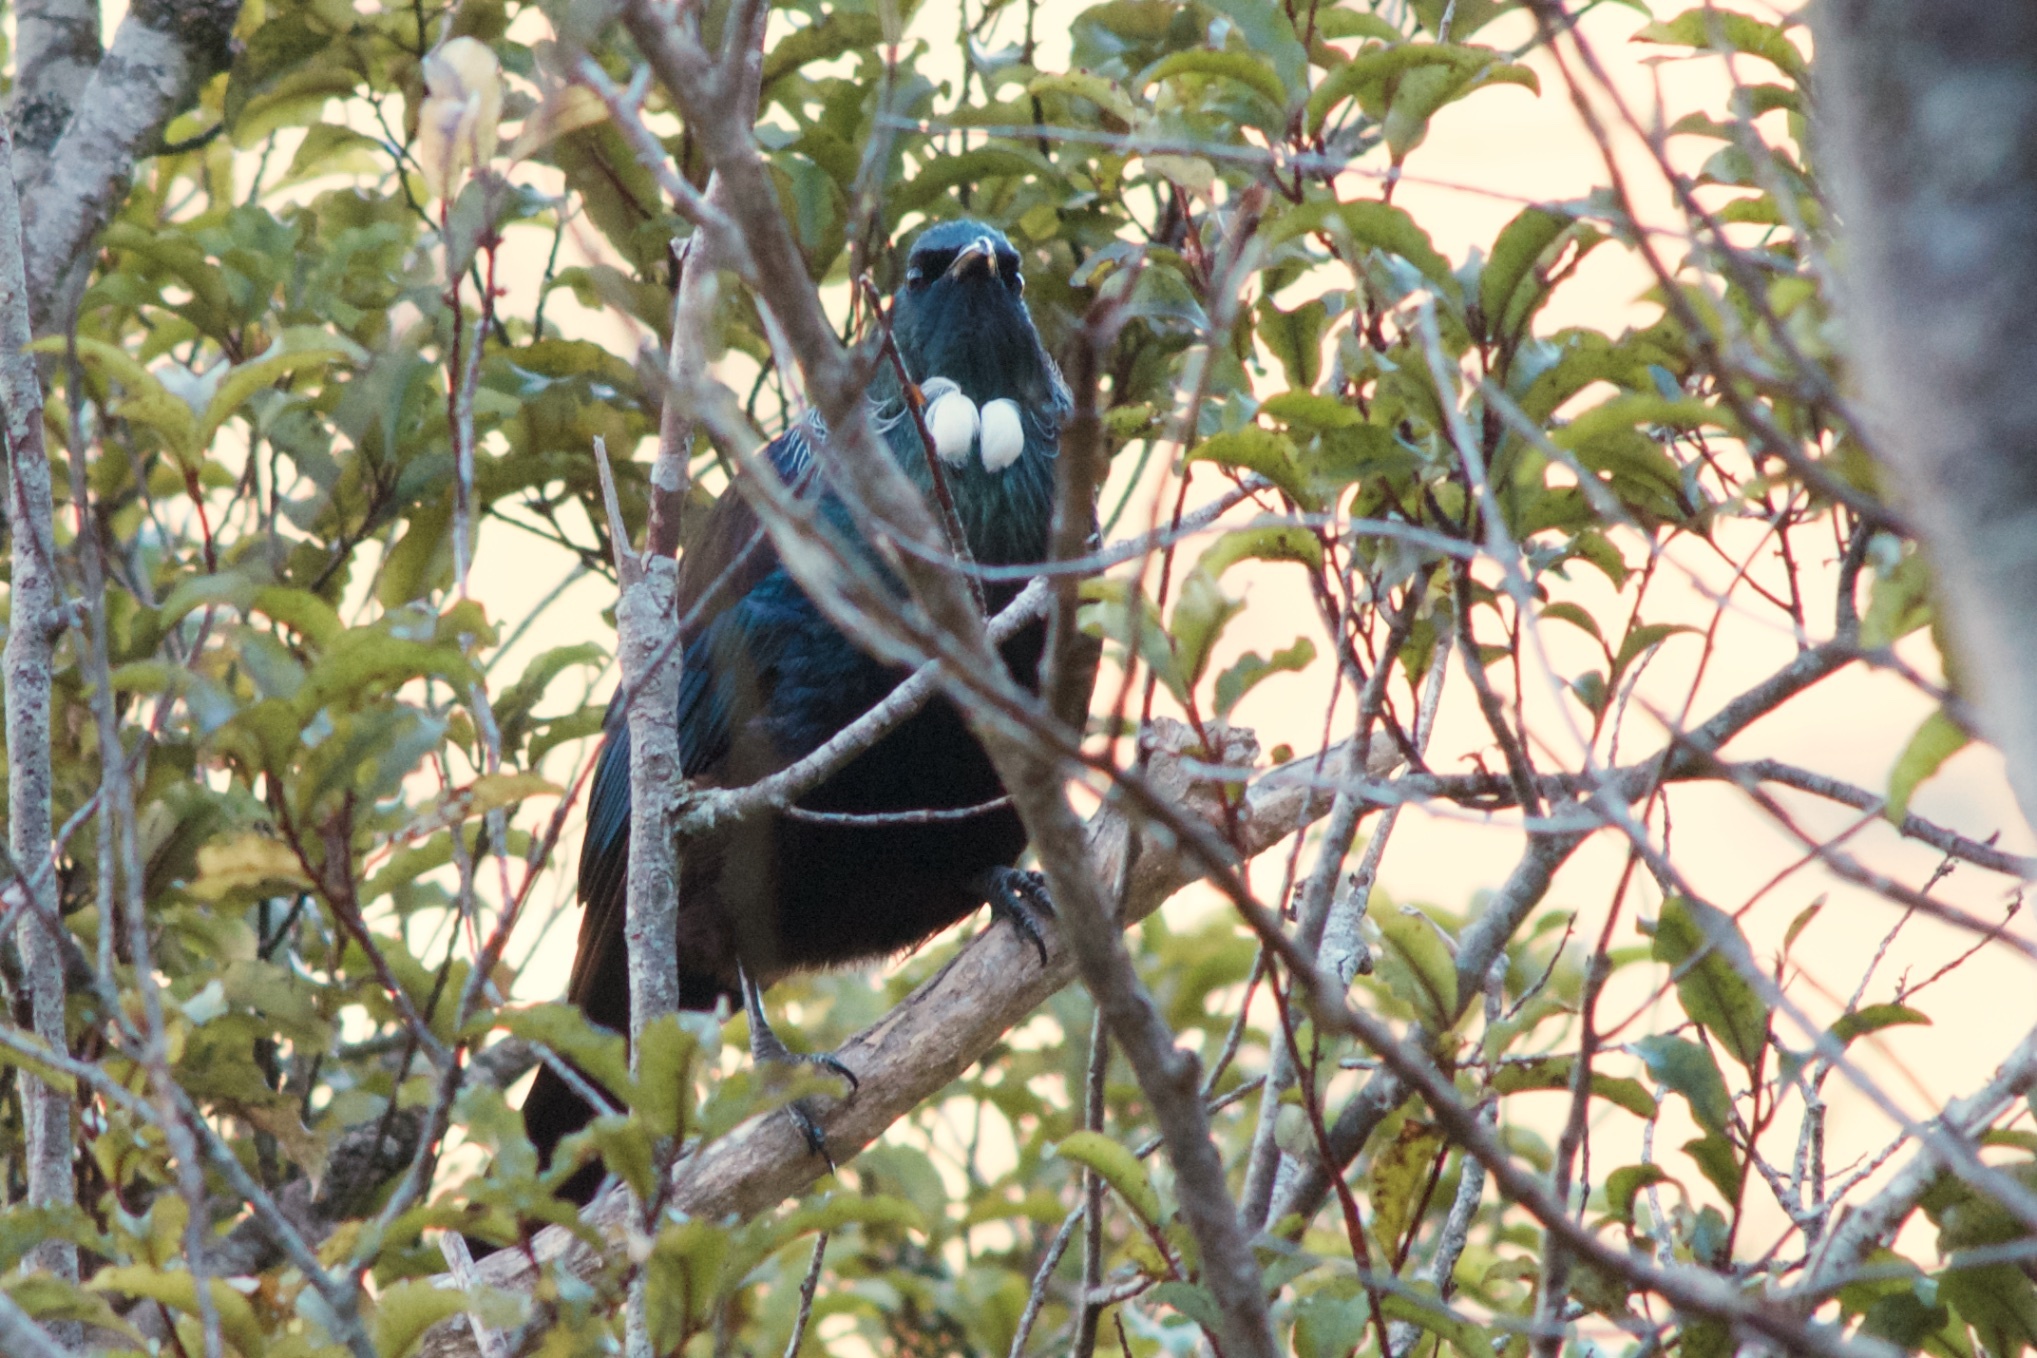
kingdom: Animalia
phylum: Chordata
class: Aves
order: Passeriformes
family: Meliphagidae
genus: Prosthemadera
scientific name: Prosthemadera novaeseelandiae
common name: Tui
